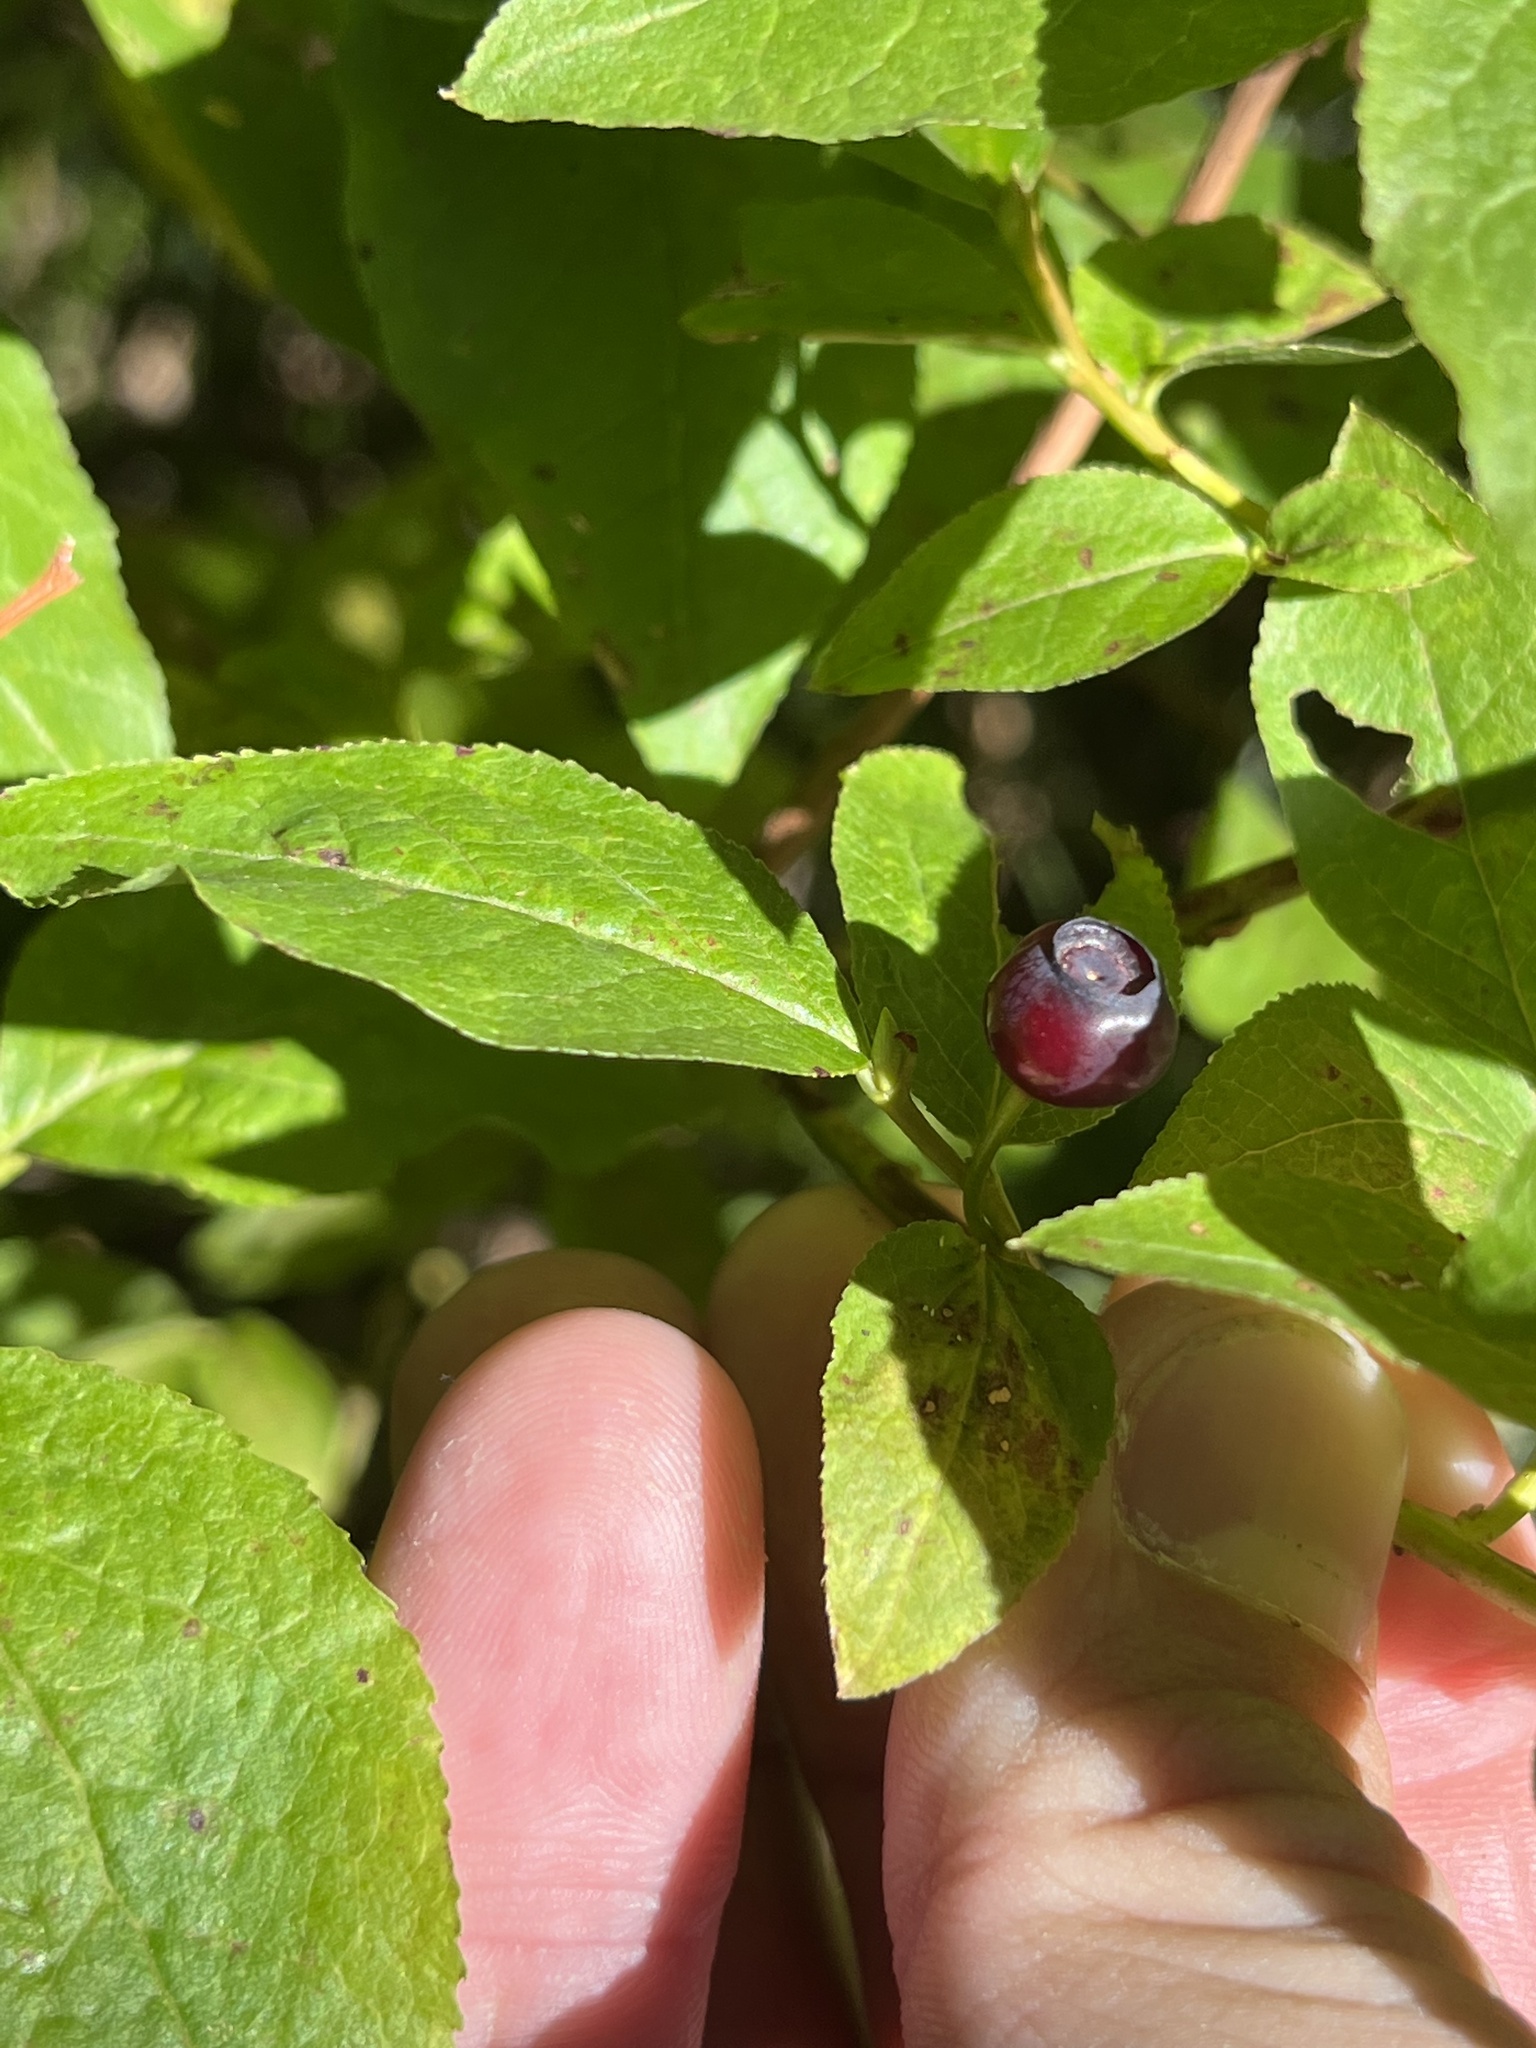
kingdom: Plantae
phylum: Tracheophyta
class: Magnoliopsida
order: Ericales
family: Ericaceae
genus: Vaccinium
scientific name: Vaccinium membranaceum
